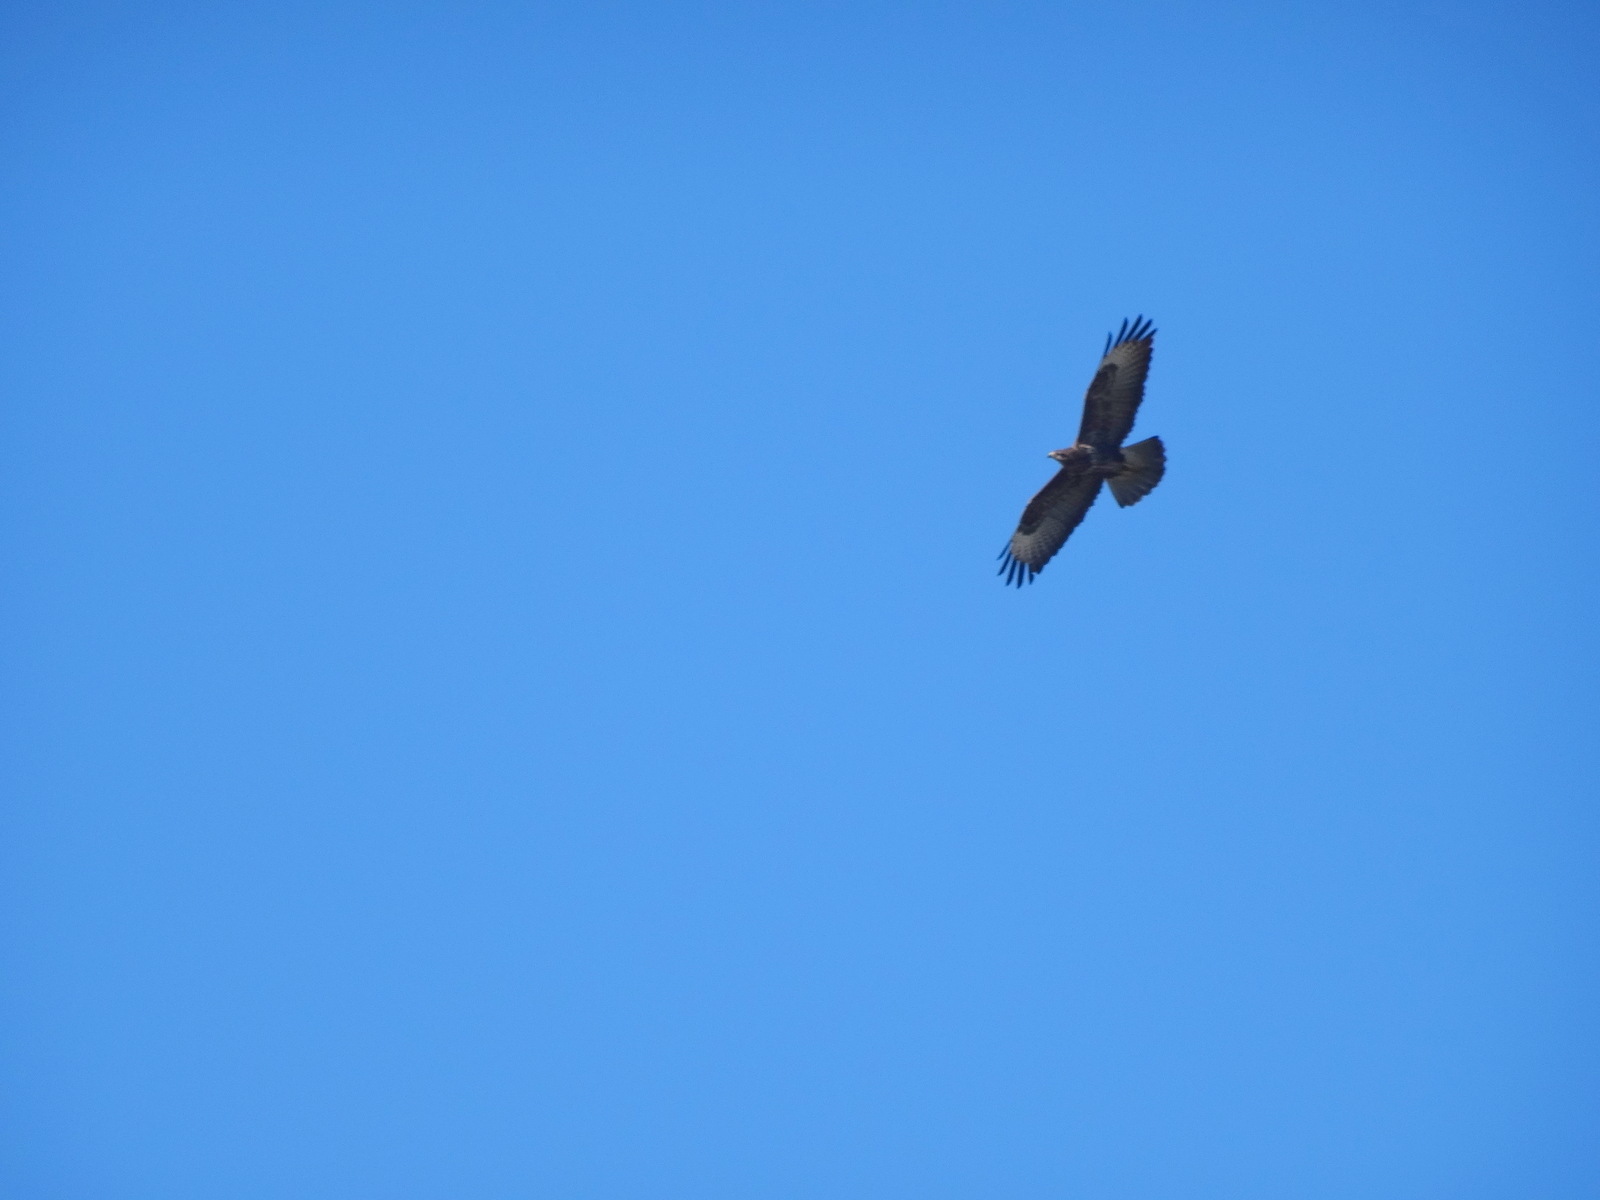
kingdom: Animalia
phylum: Chordata
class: Aves
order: Accipitriformes
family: Accipitridae
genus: Buteo
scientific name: Buteo buteo
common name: Common buzzard
